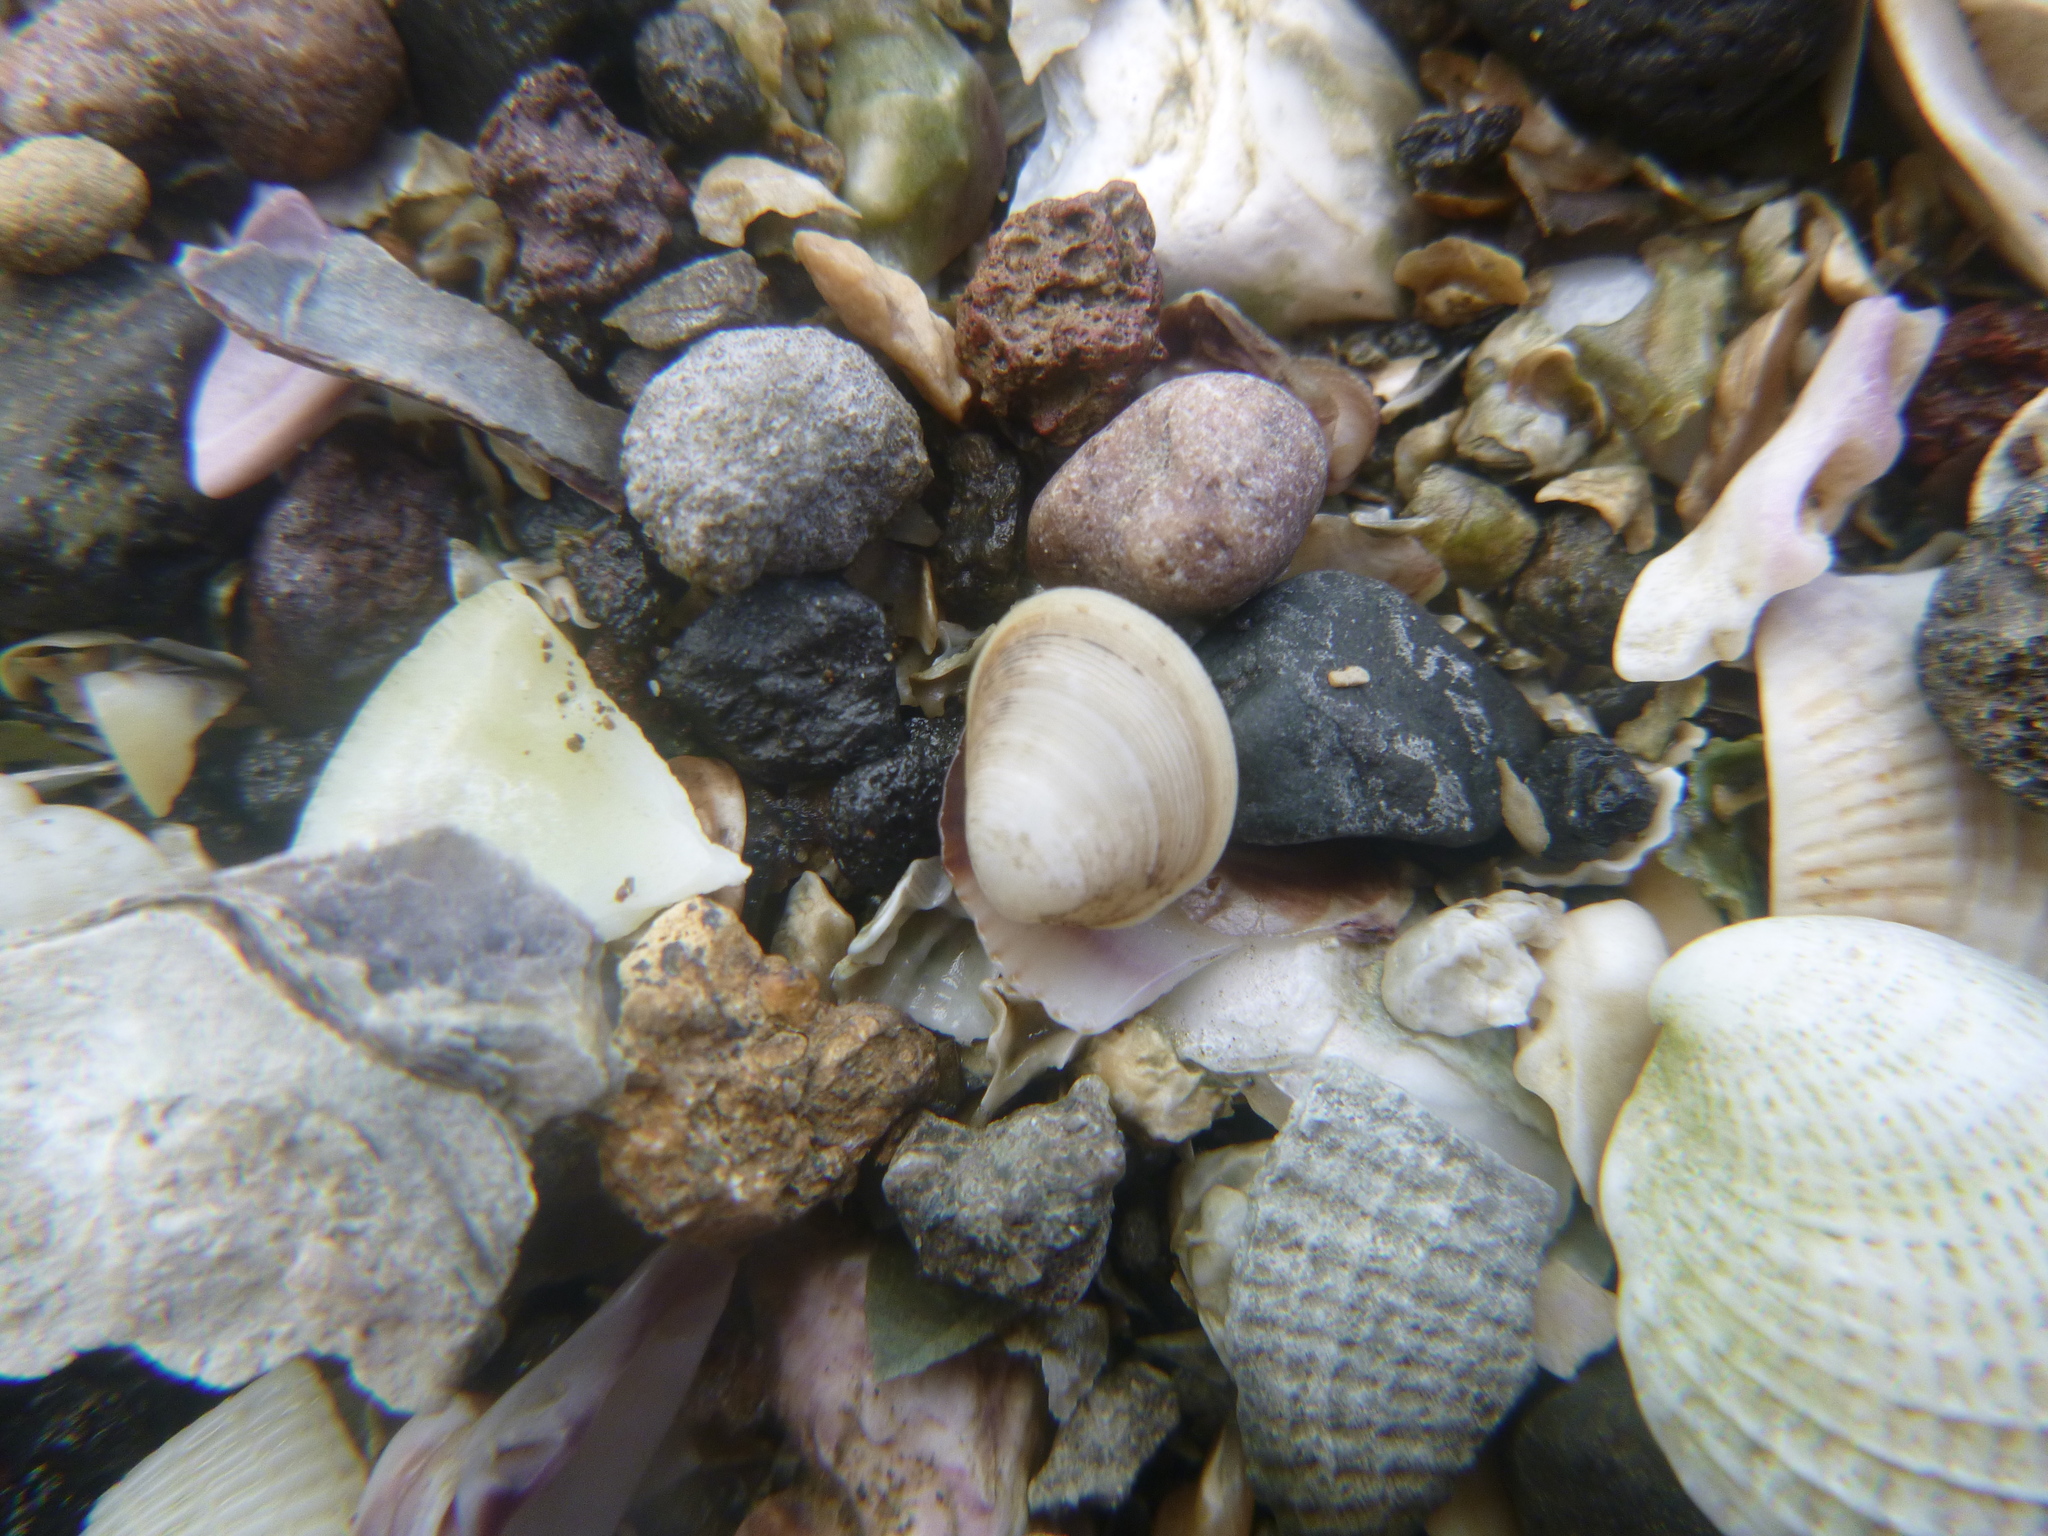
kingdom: Animalia
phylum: Mollusca
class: Bivalvia
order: Nuculida
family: Nuculidae
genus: Linucula
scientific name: Linucula hartvigiana
